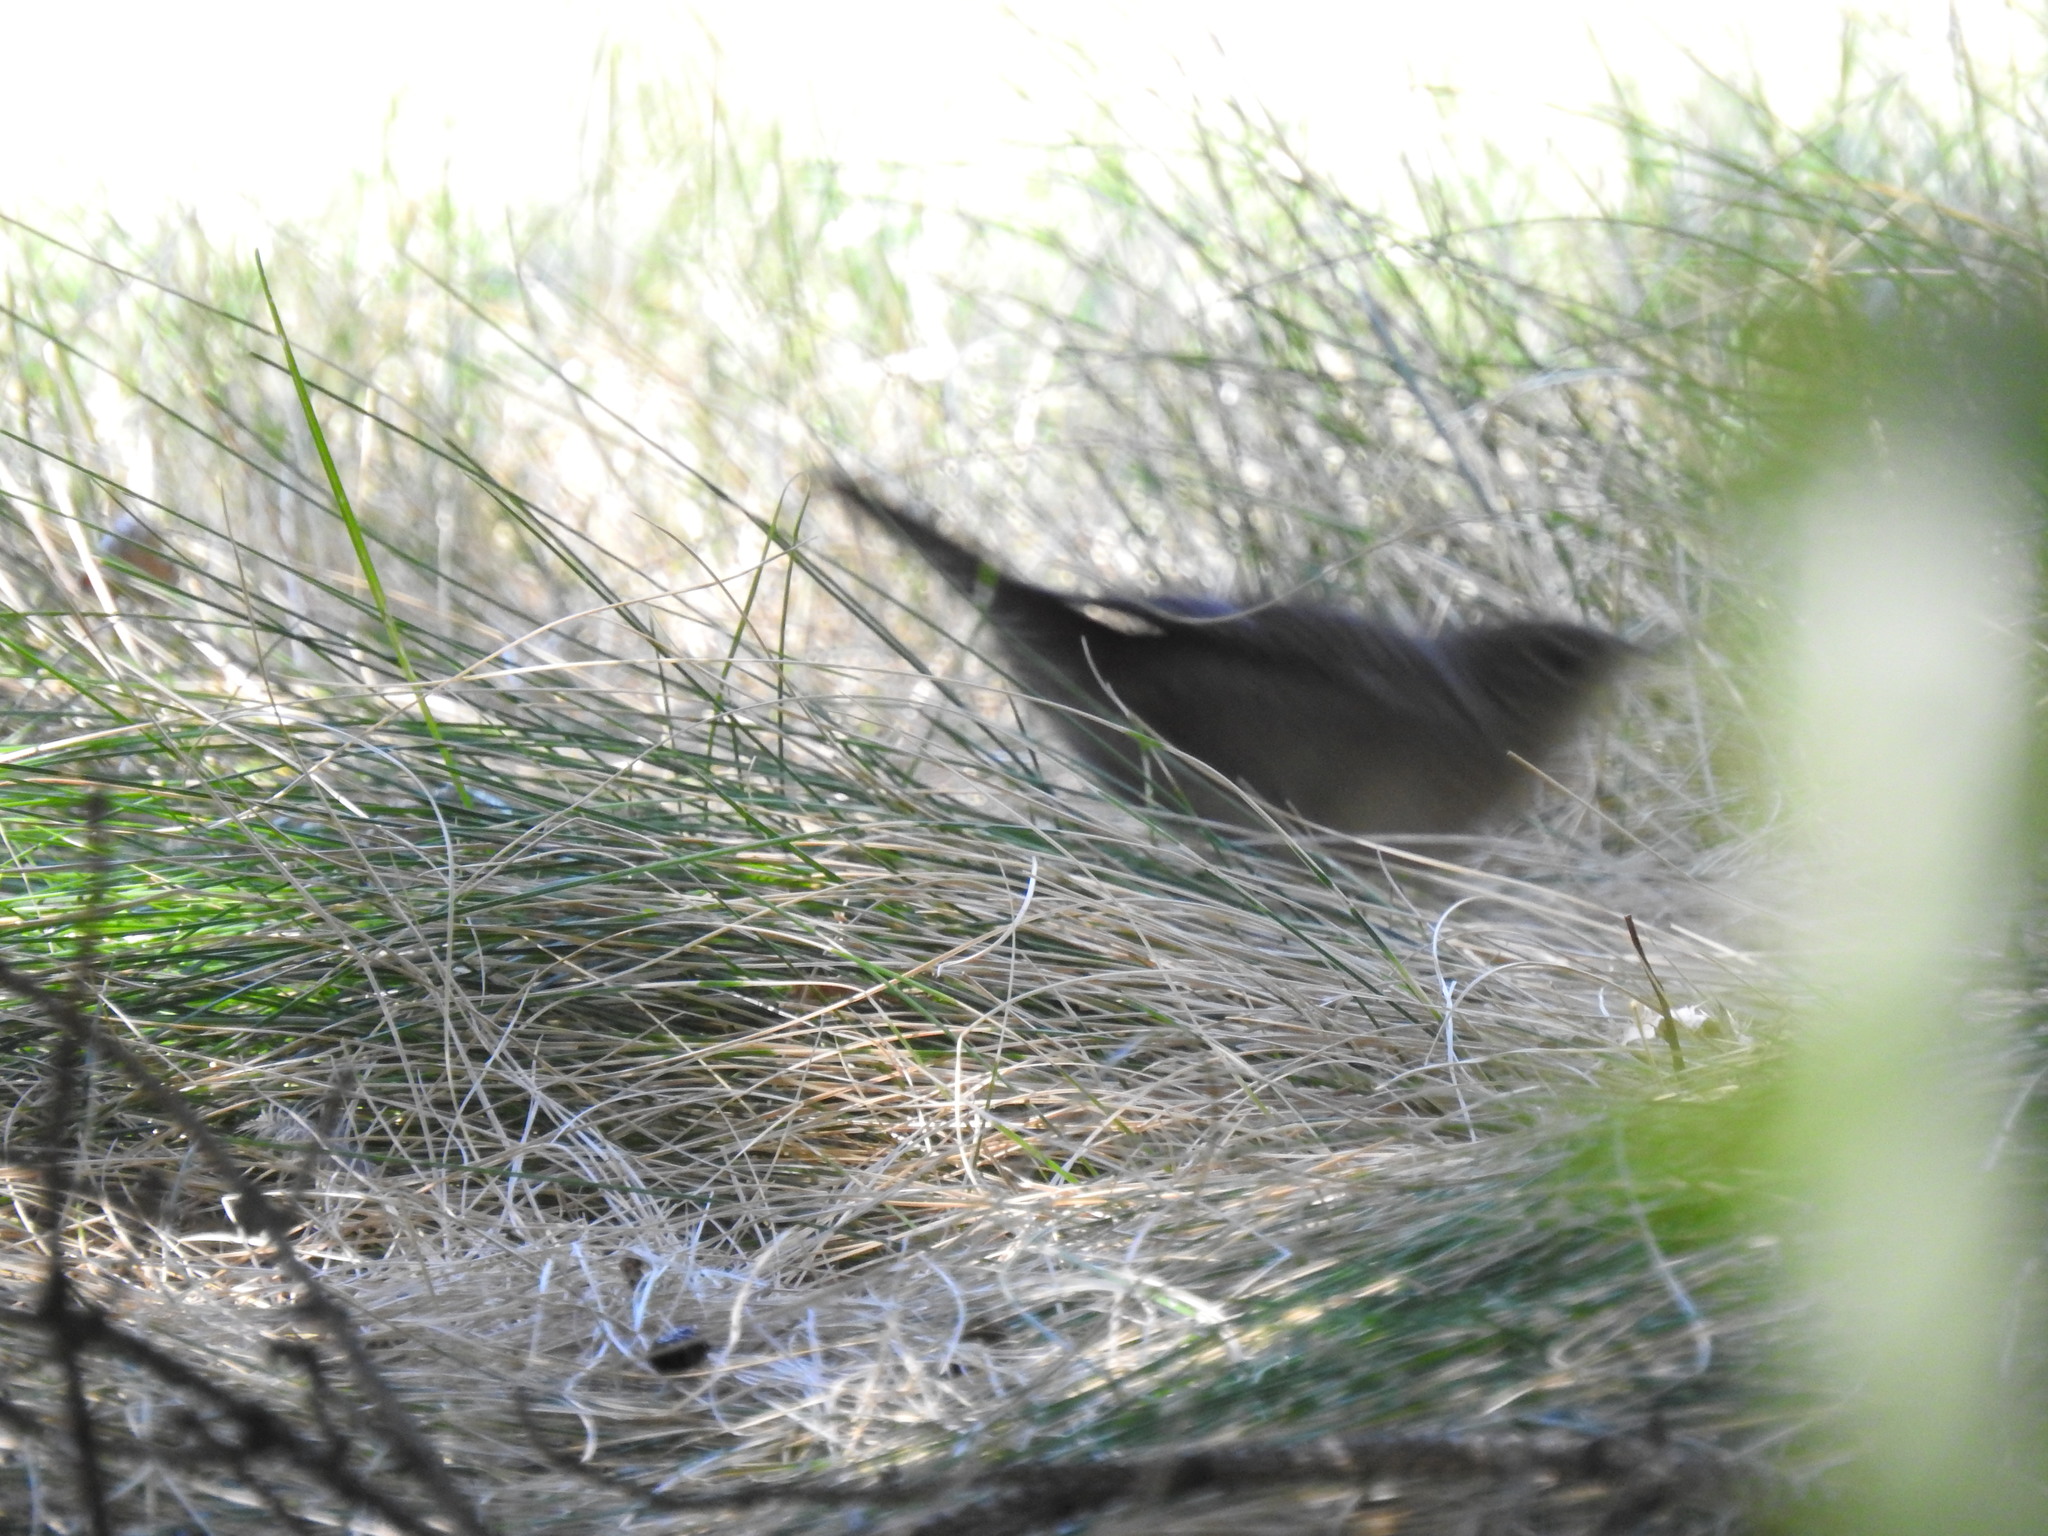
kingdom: Animalia
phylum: Chordata
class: Aves
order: Passeriformes
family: Troglodytidae
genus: Troglodytes
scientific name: Troglodytes aedon
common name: House wren
